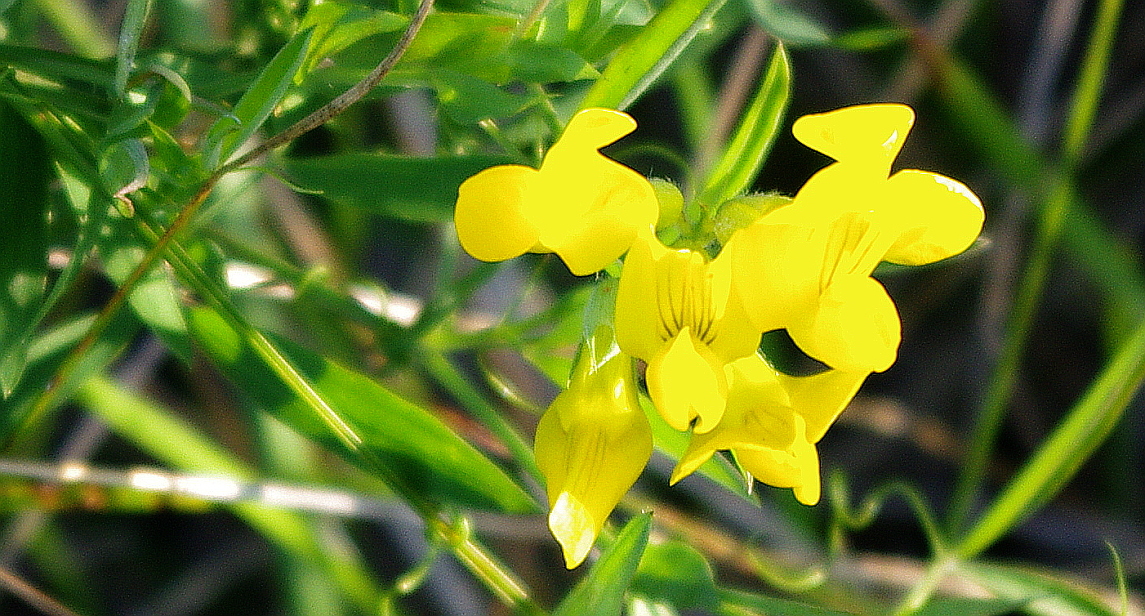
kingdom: Plantae
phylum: Tracheophyta
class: Magnoliopsida
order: Fabales
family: Fabaceae
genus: Lathyrus
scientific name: Lathyrus pratensis
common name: Meadow vetchling
